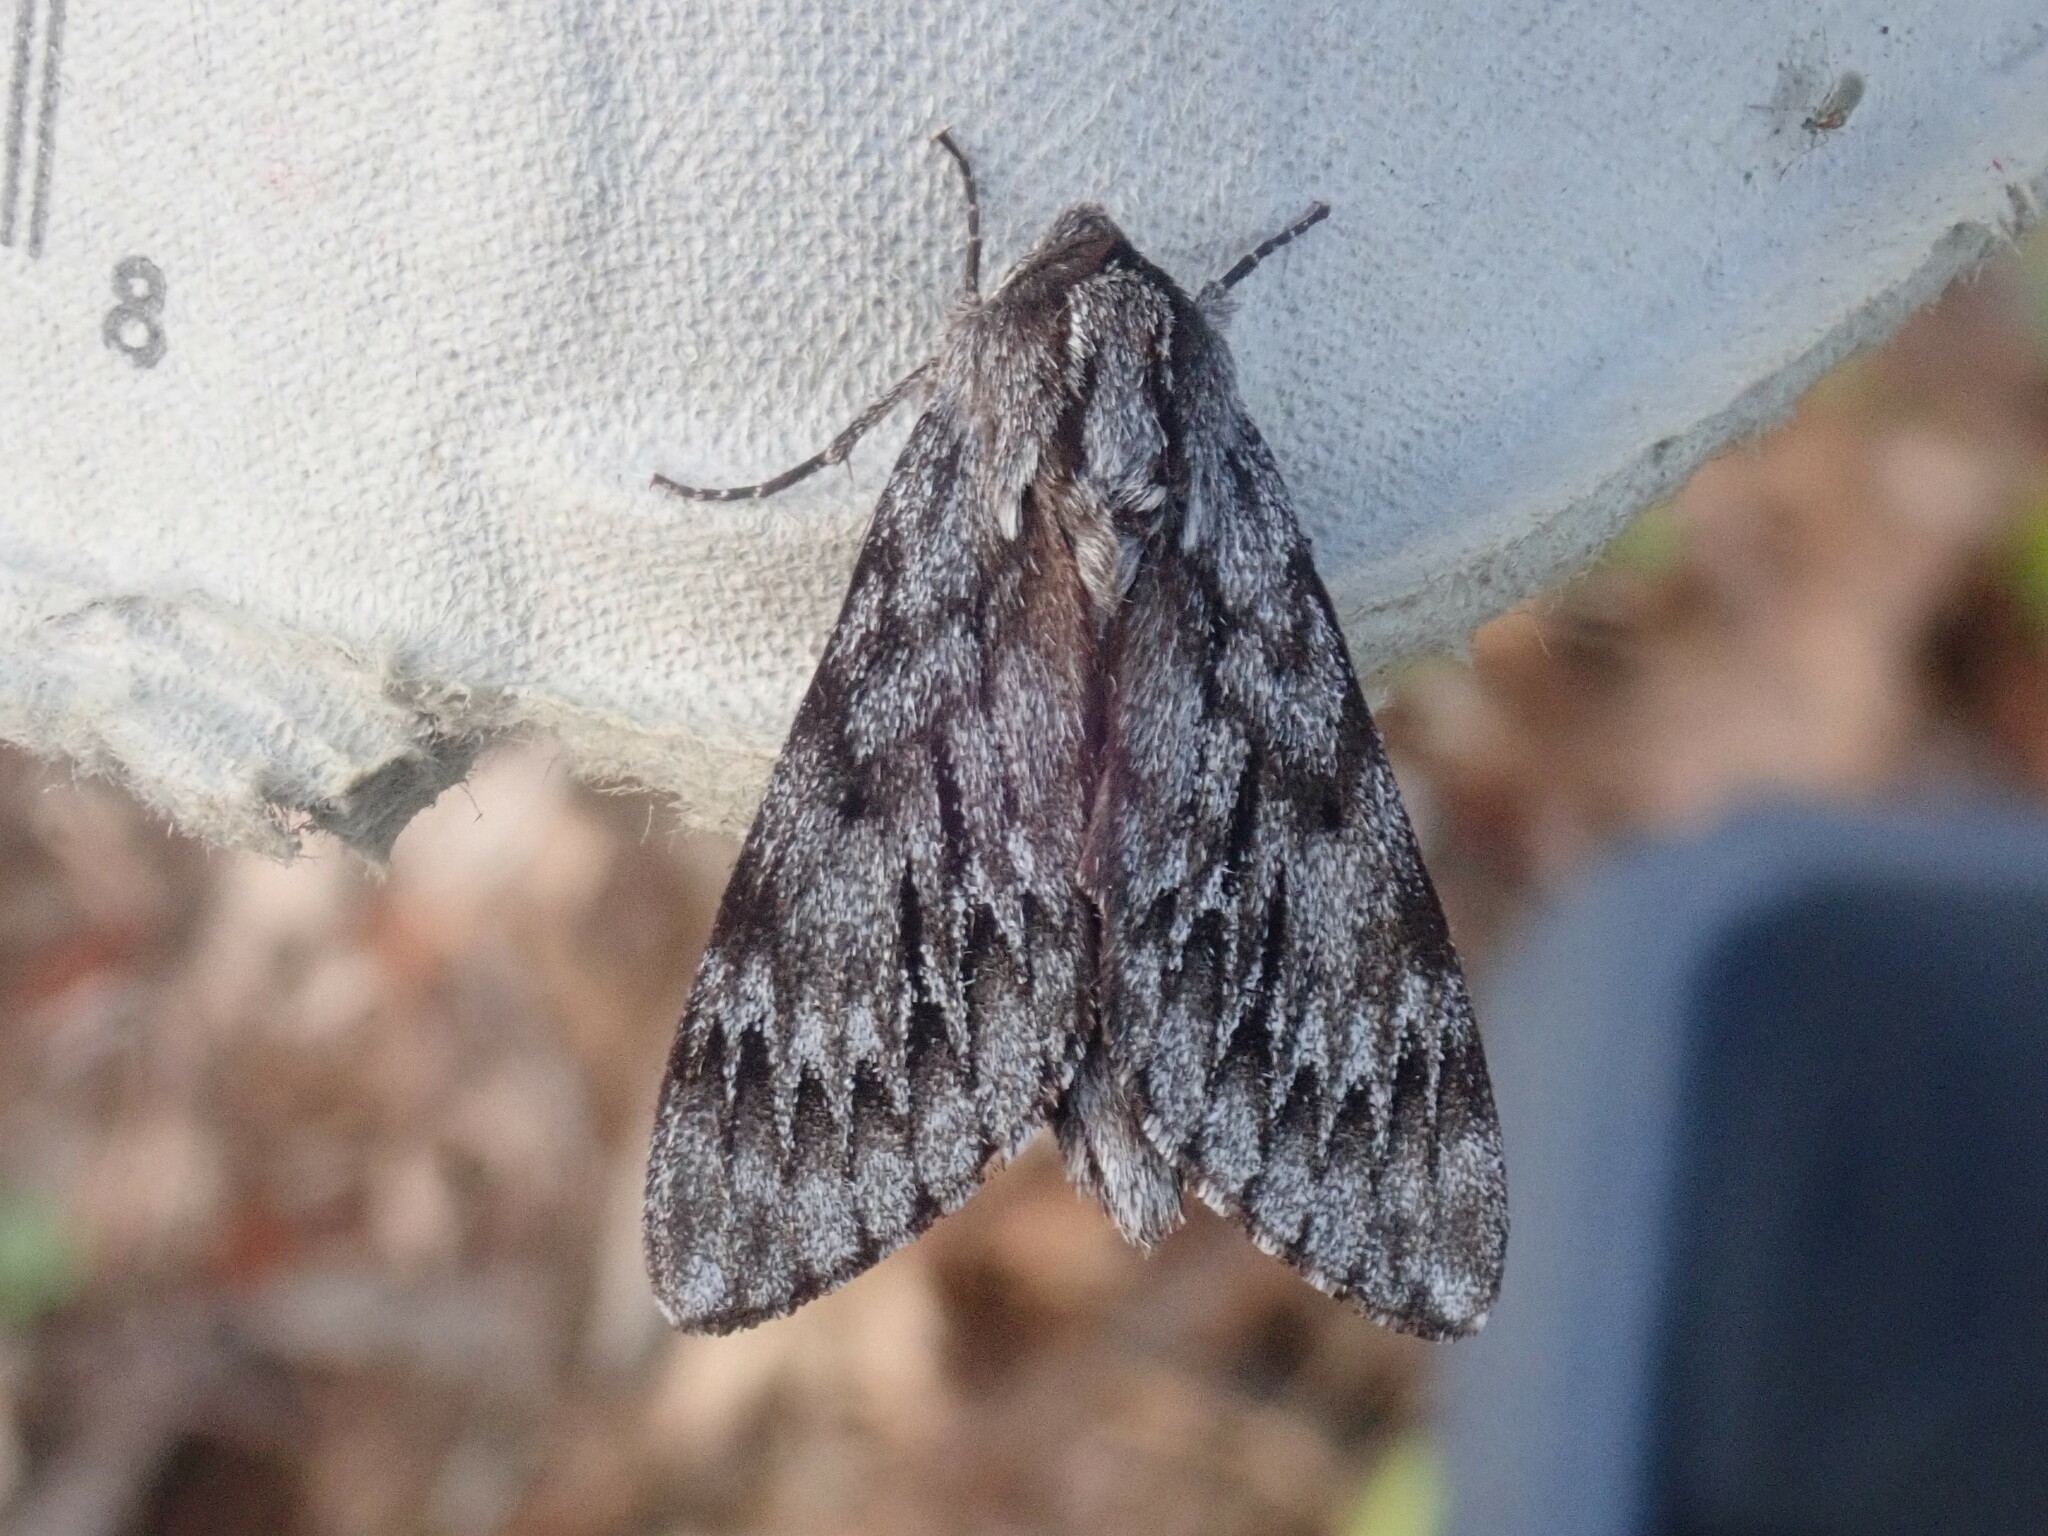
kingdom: Animalia
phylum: Arthropoda
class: Insecta
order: Lepidoptera
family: Sphingidae
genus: Lapara
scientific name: Lapara bombycoides
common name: Northern pine sphinx
